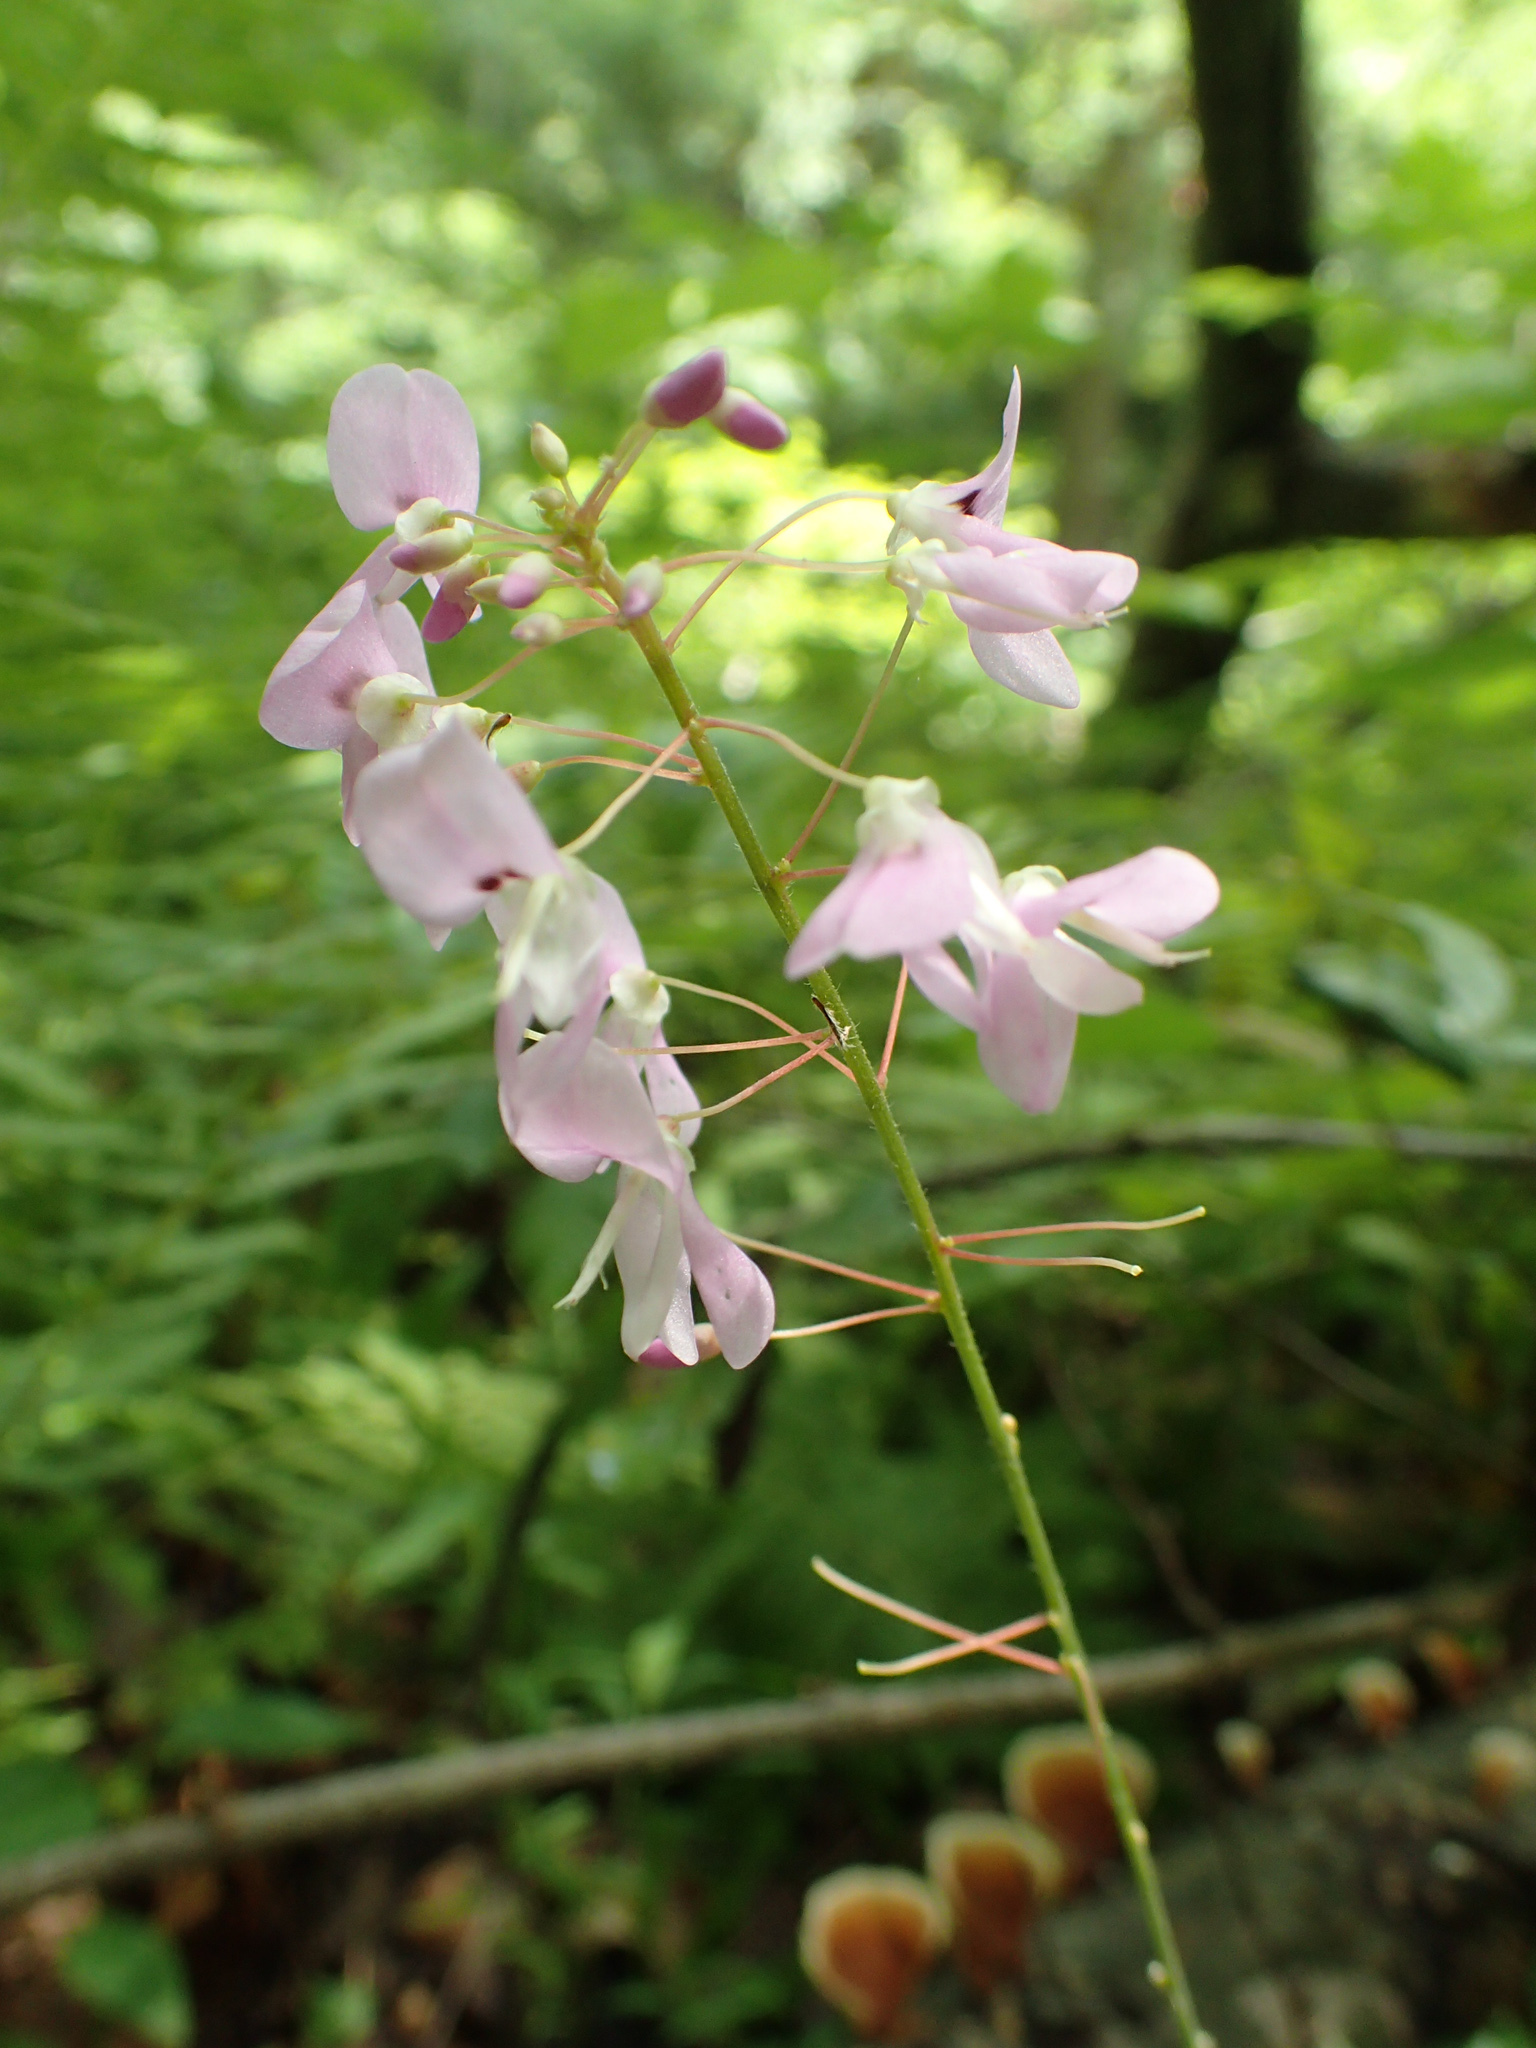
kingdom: Plantae
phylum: Tracheophyta
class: Magnoliopsida
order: Fabales
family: Fabaceae
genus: Hylodesmum
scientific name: Hylodesmum nudiflorum
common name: Bare-stemmed tick-trefoil
